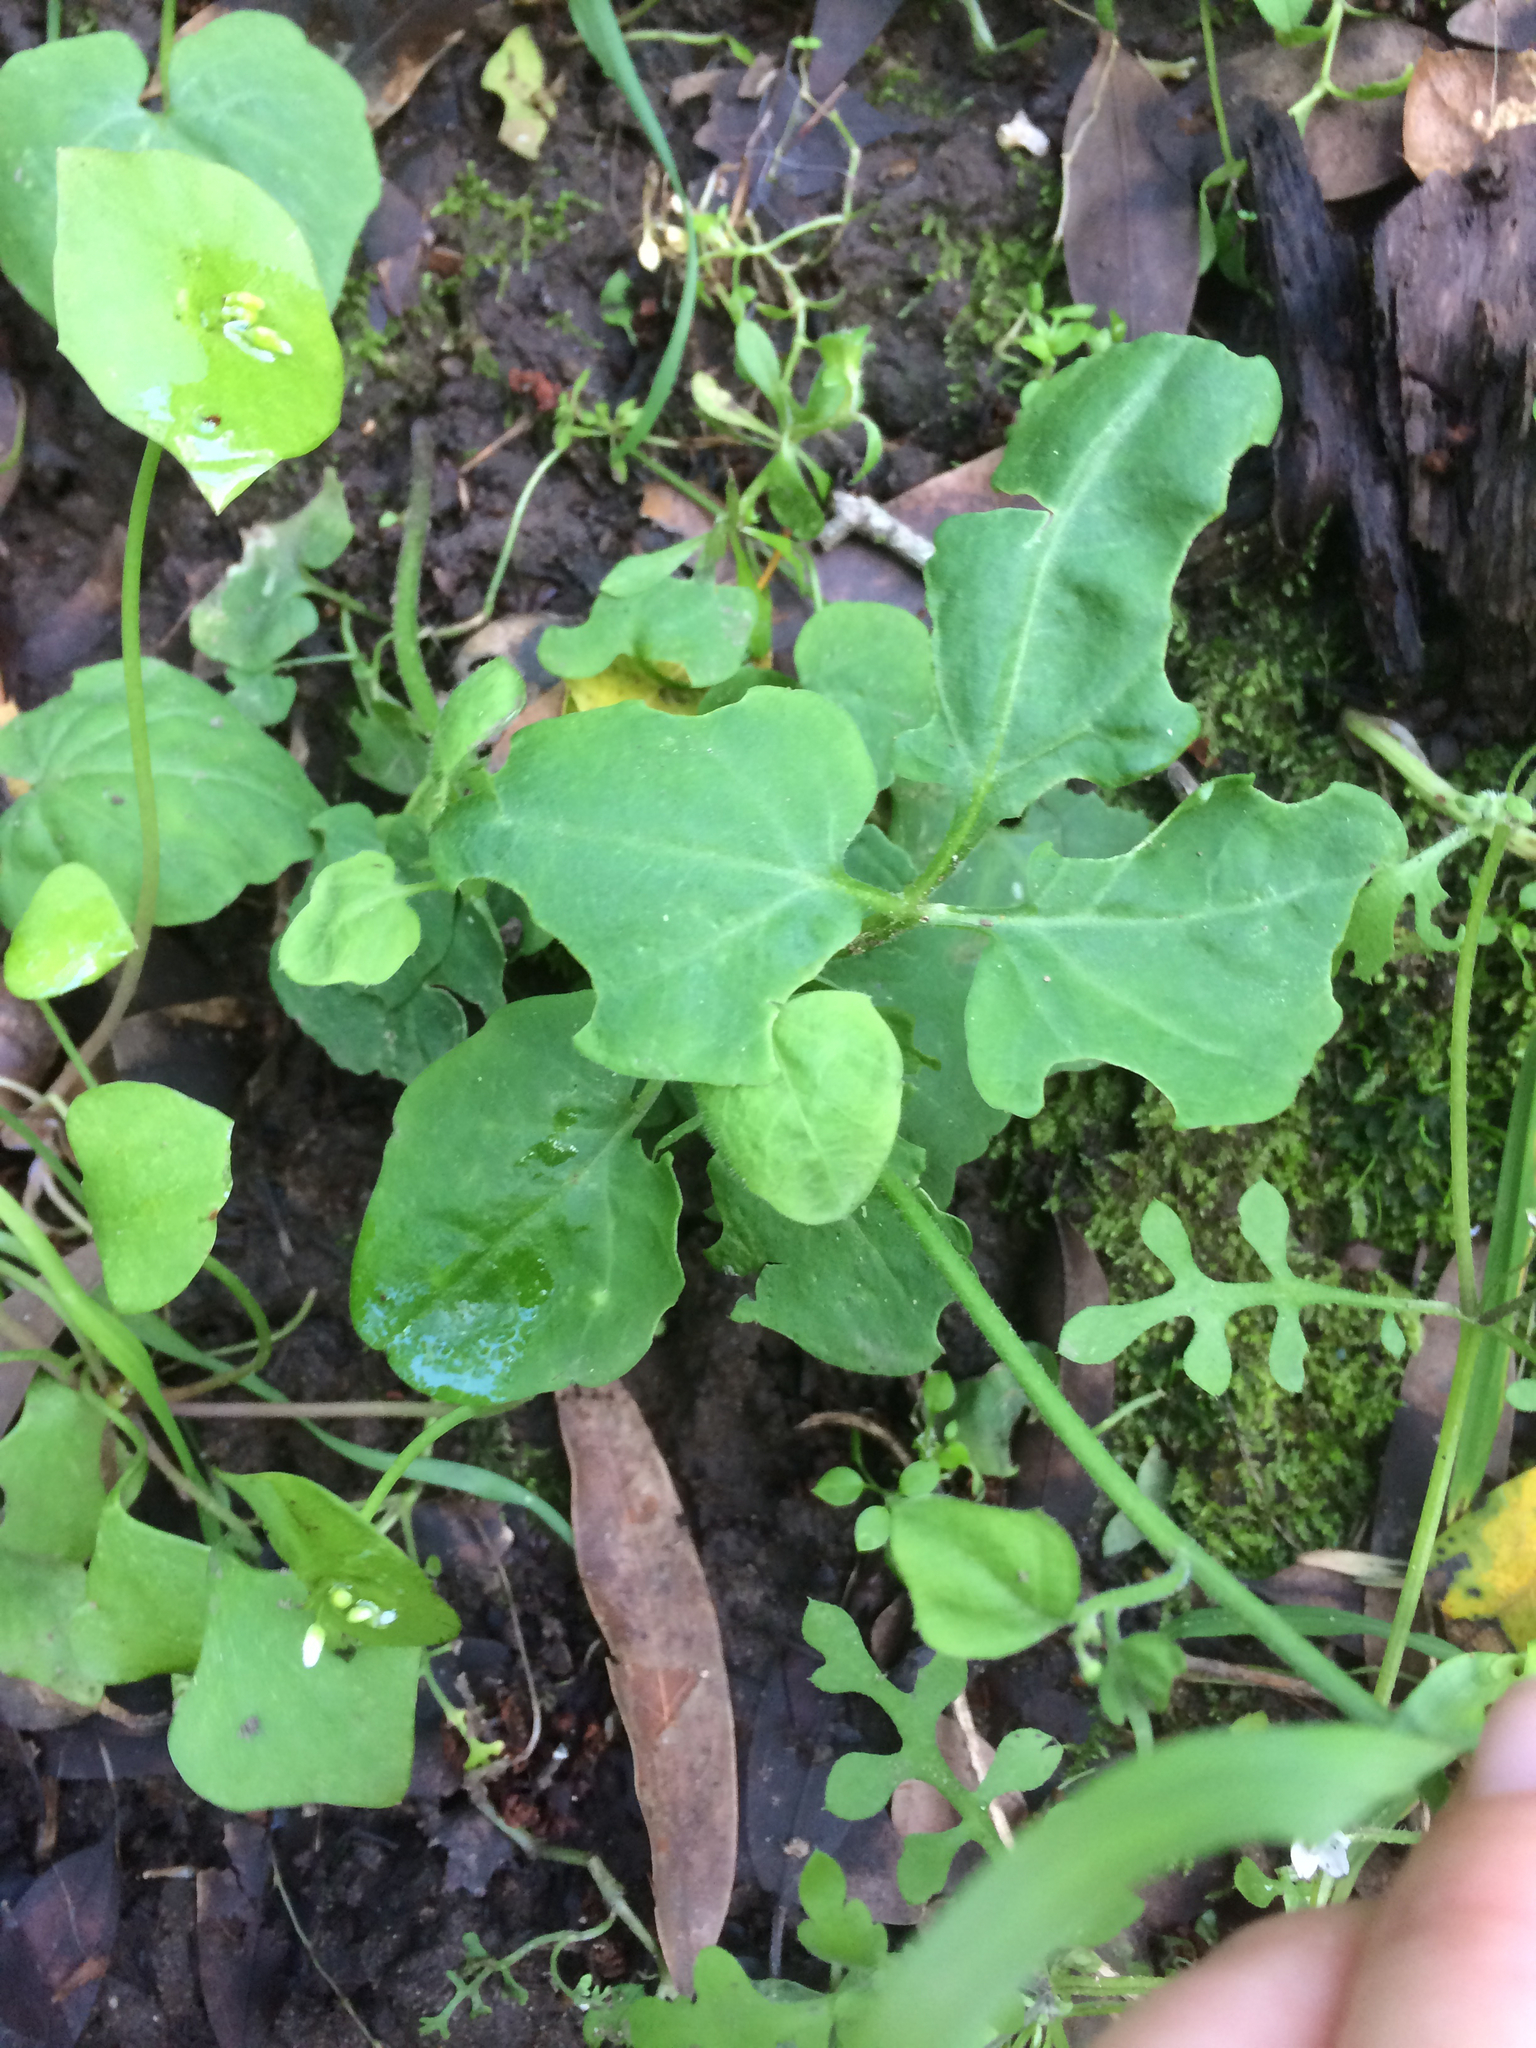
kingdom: Plantae
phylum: Tracheophyta
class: Magnoliopsida
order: Brassicales
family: Brassicaceae
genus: Cardamine
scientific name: Cardamine californica
